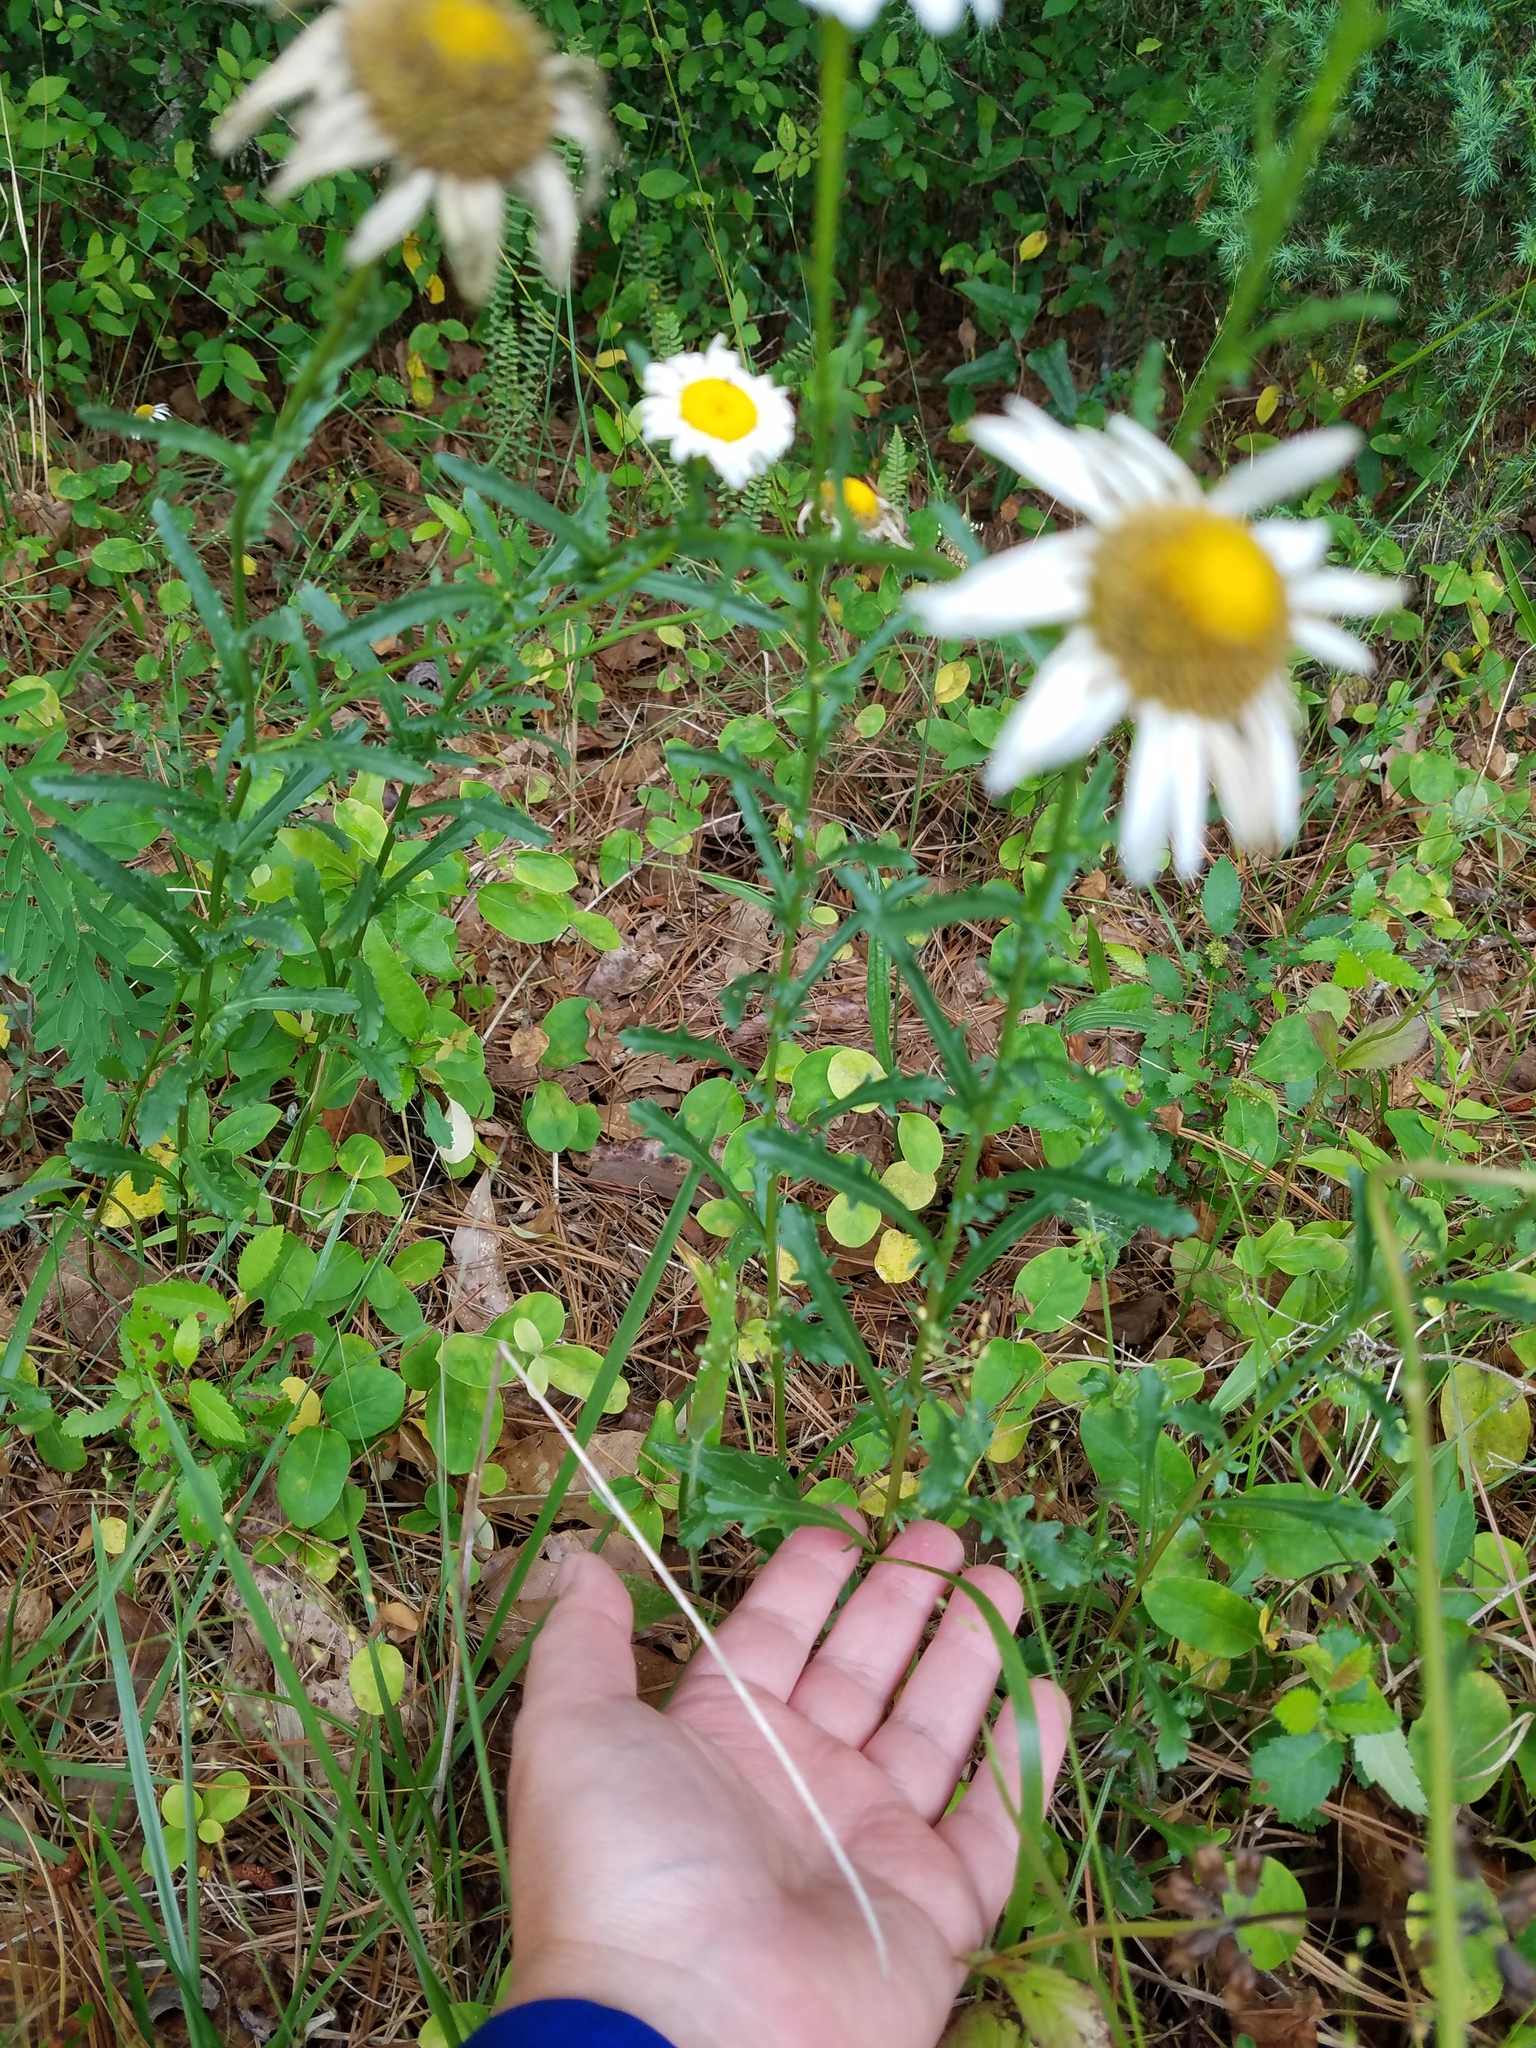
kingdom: Plantae
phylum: Tracheophyta
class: Magnoliopsida
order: Asterales
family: Asteraceae
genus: Leucanthemum
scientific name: Leucanthemum vulgare
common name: Oxeye daisy
